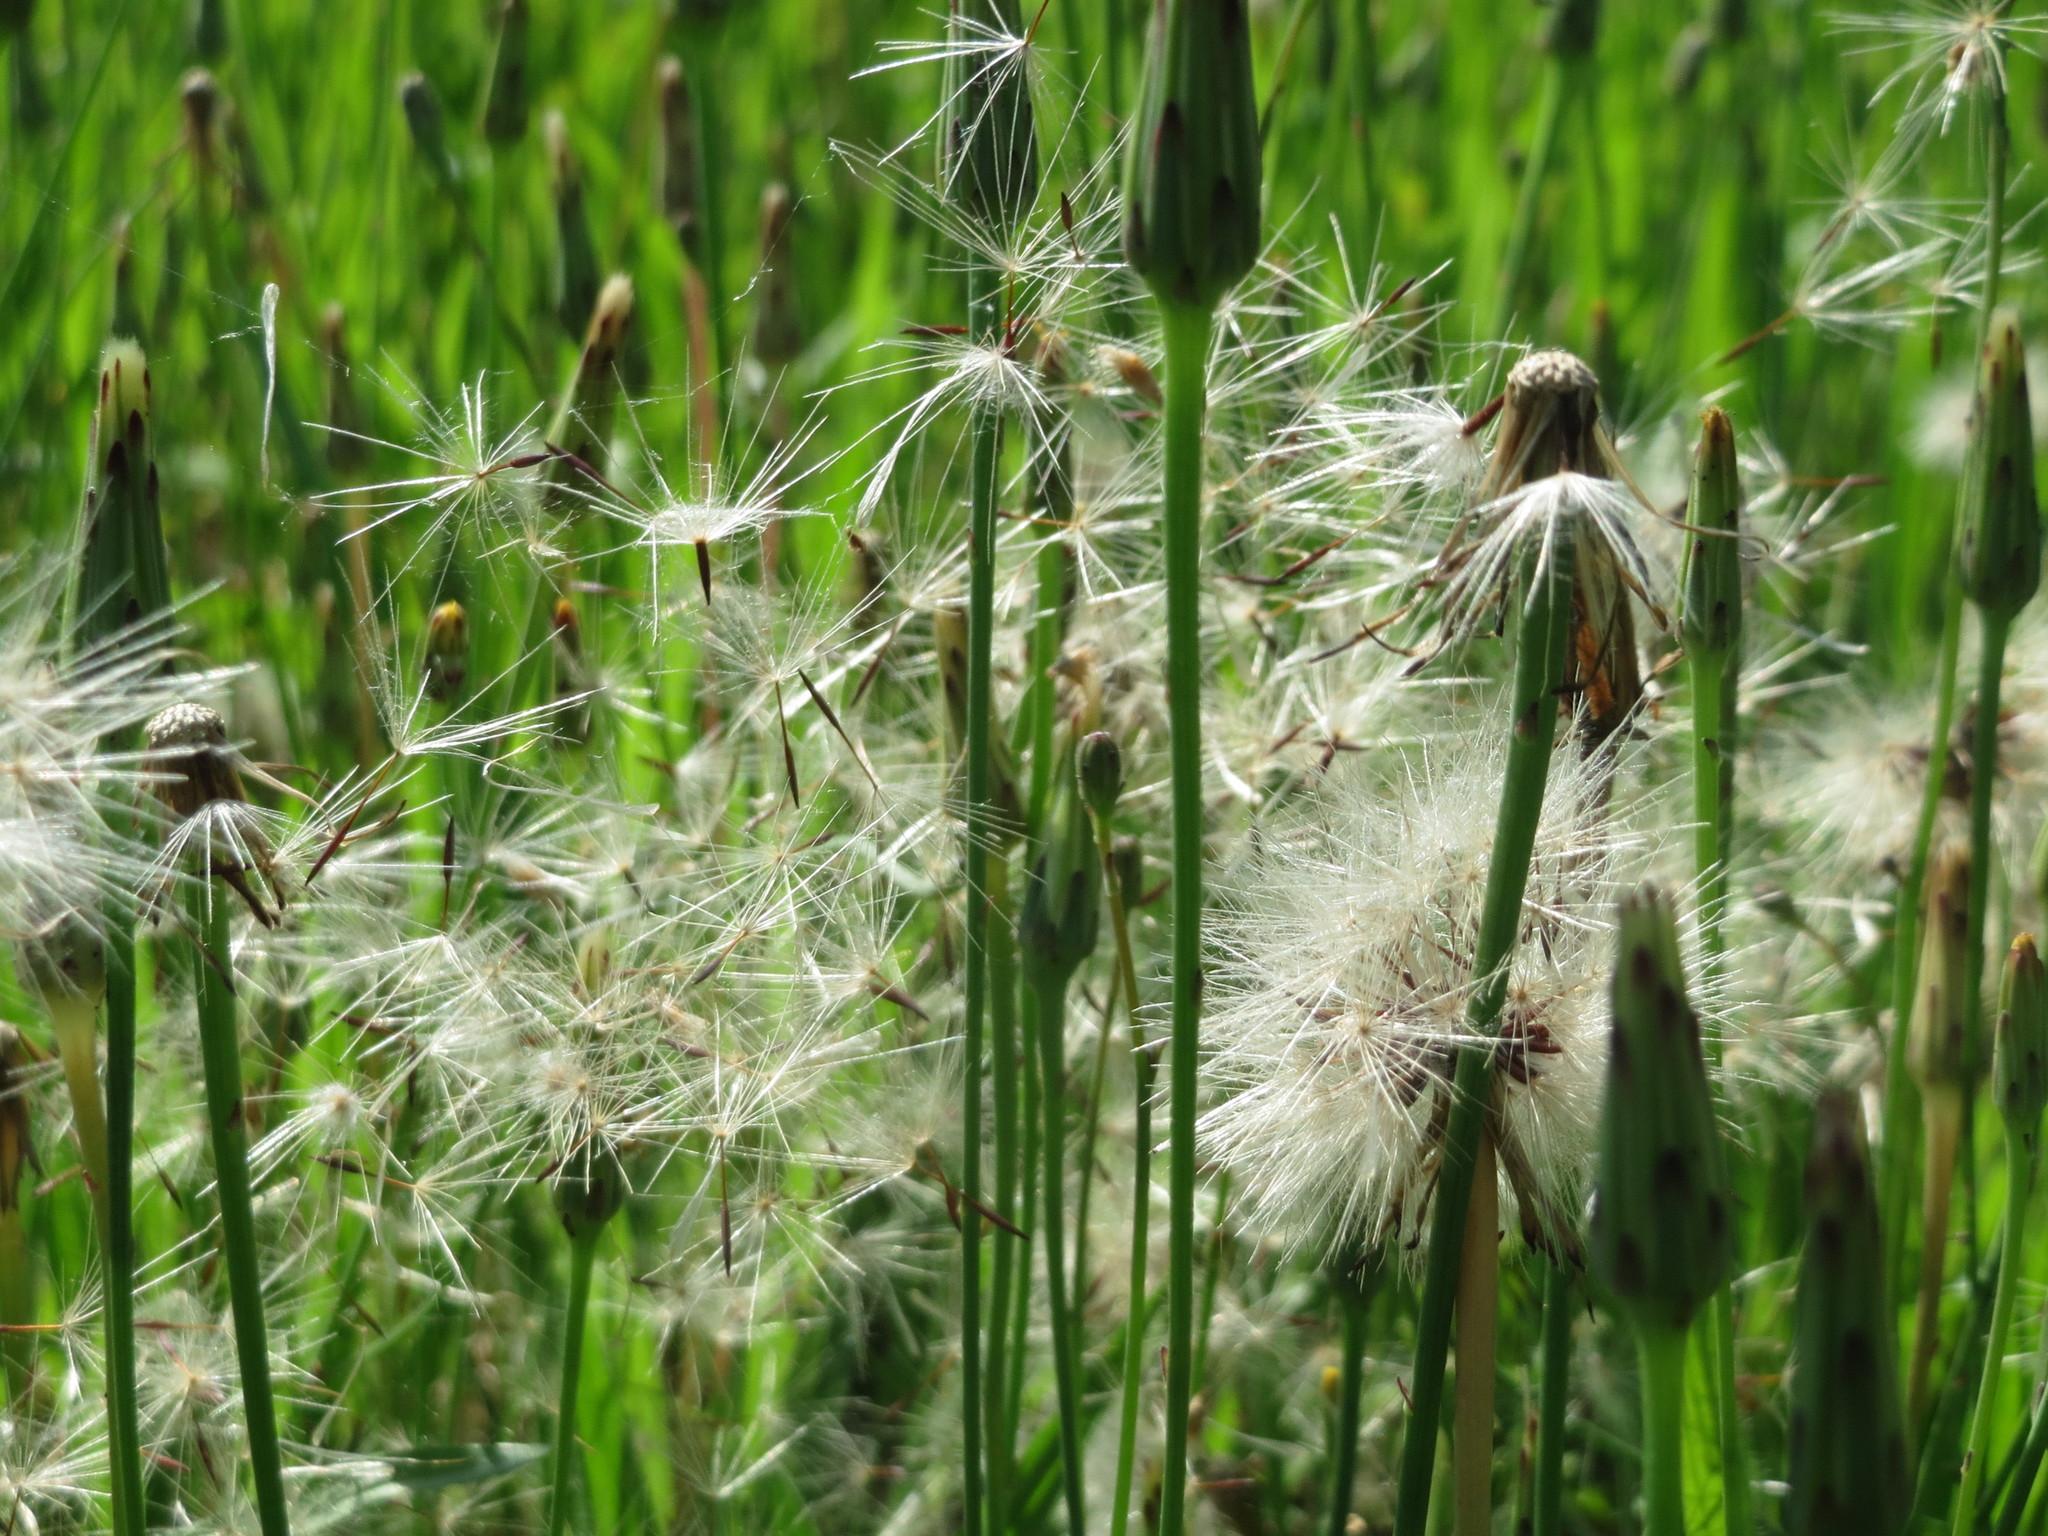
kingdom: Plantae
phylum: Tracheophyta
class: Magnoliopsida
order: Asterales
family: Asteraceae
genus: Hypochaeris
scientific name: Hypochaeris radicata
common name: Flatweed
